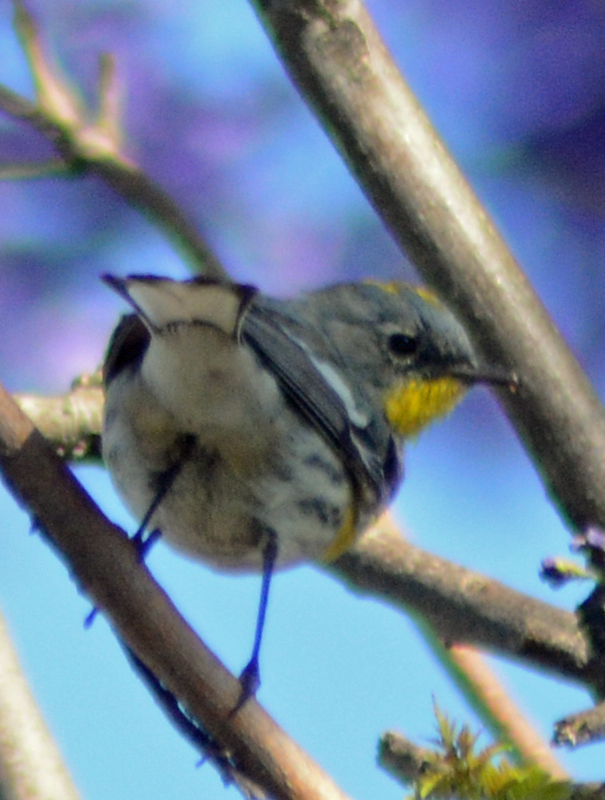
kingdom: Animalia
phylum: Chordata
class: Aves
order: Passeriformes
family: Parulidae
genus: Setophaga
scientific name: Setophaga coronata
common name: Myrtle warbler
